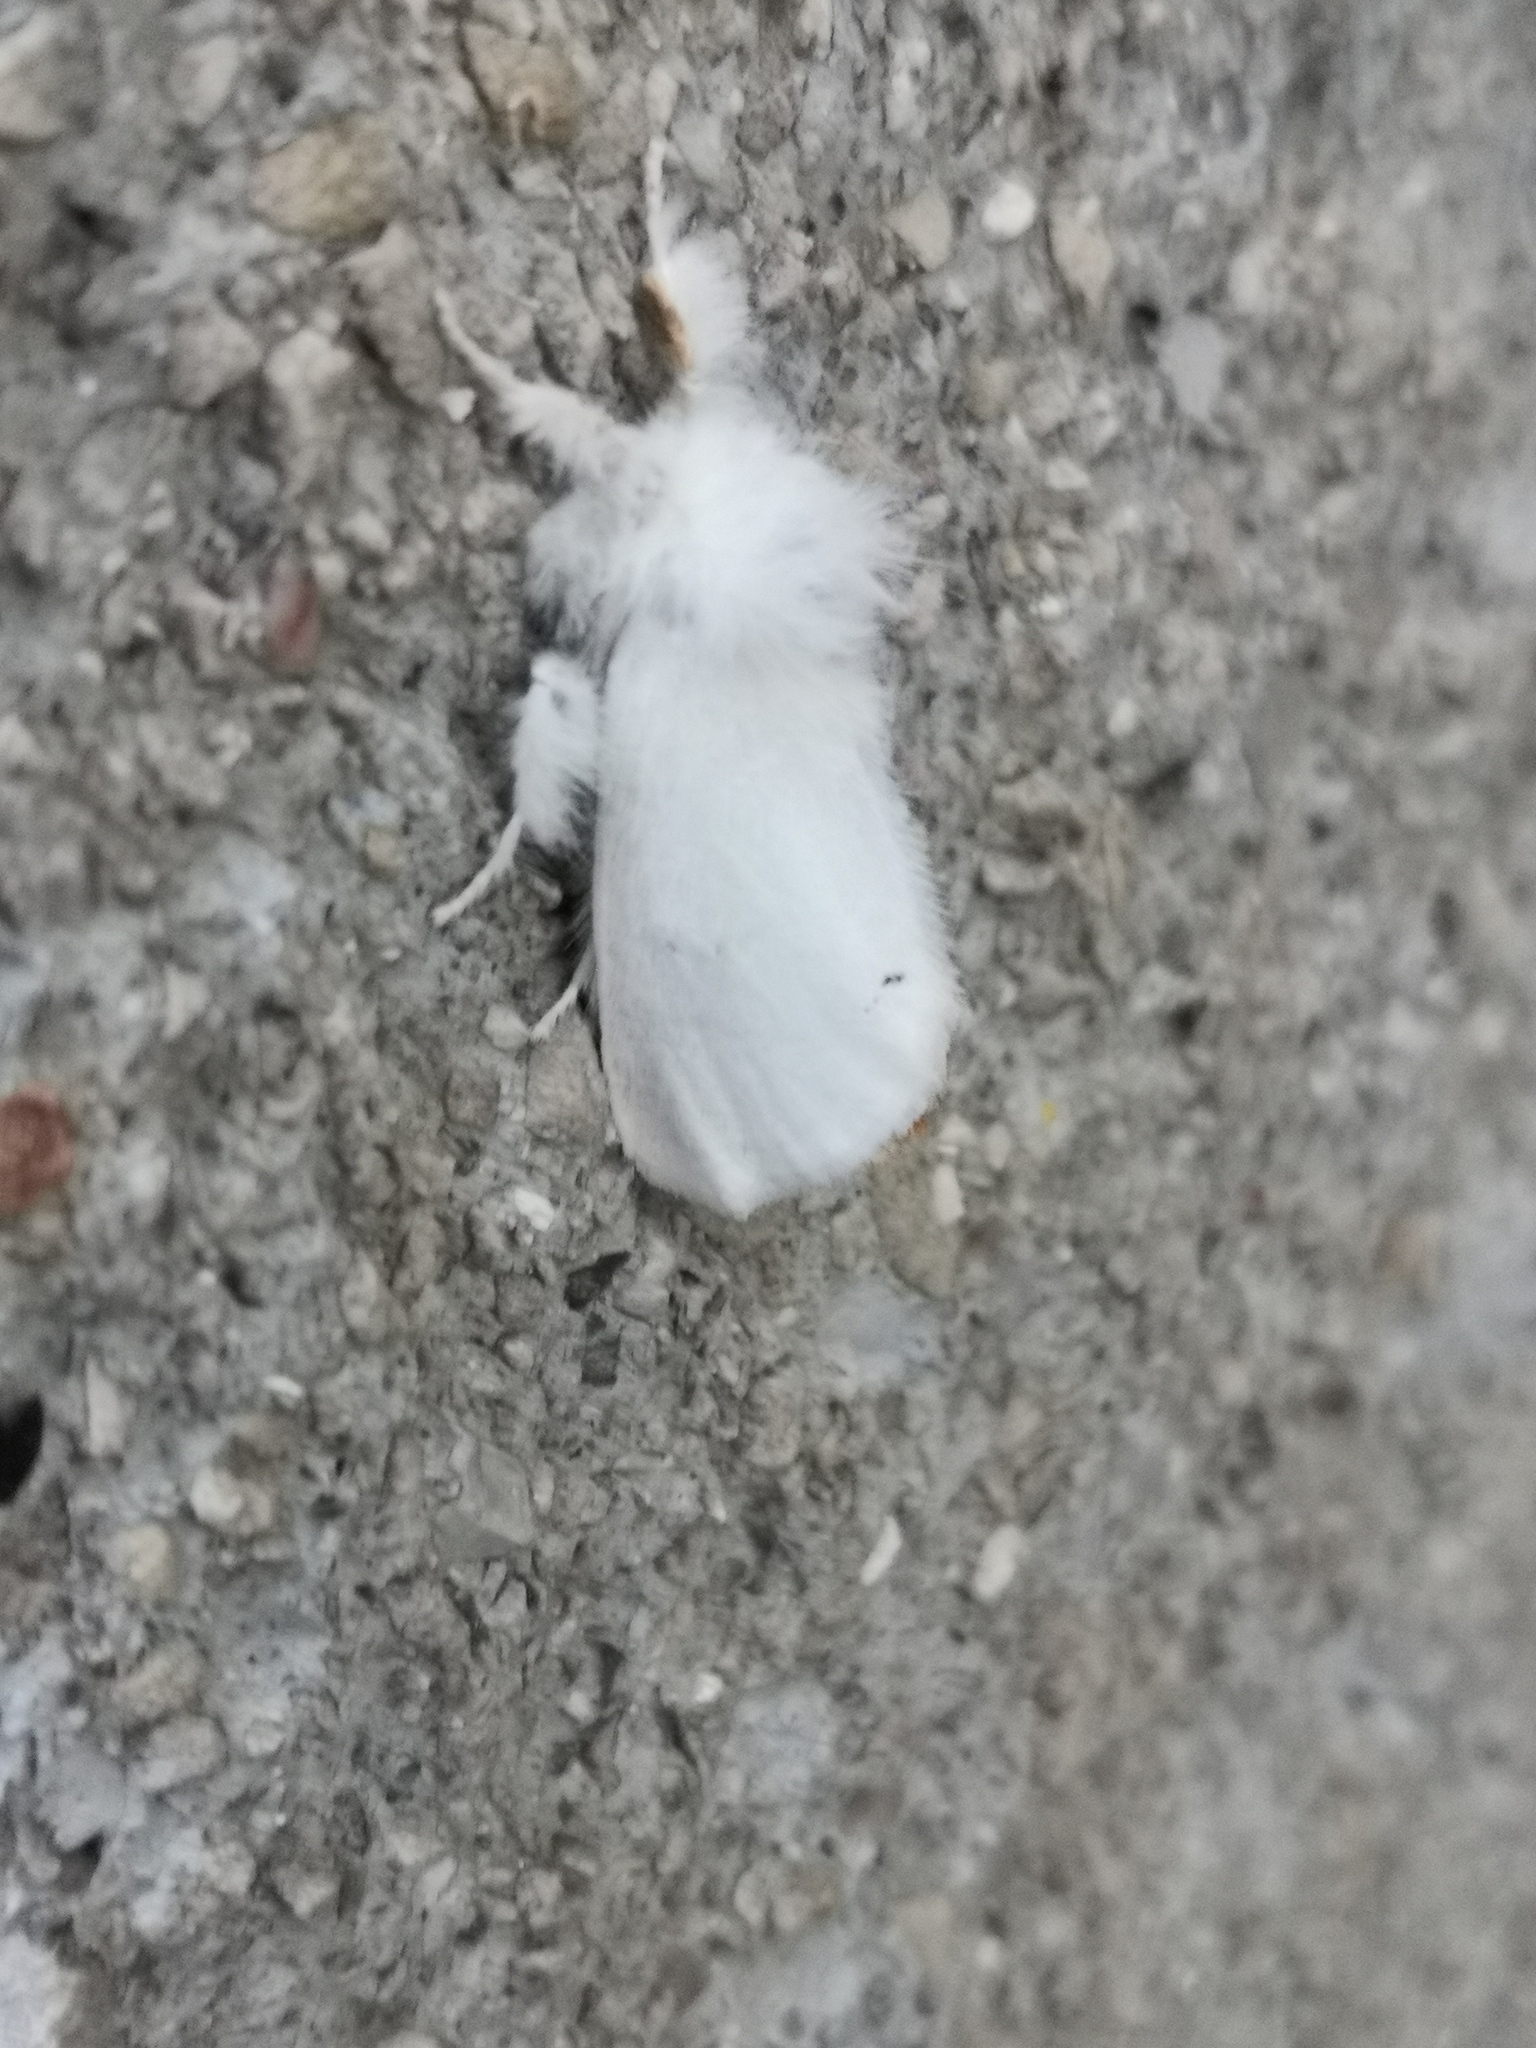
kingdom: Animalia
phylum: Arthropoda
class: Insecta
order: Lepidoptera
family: Erebidae
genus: Euproctis
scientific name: Euproctis chrysorrhoea
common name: Brown-tail
